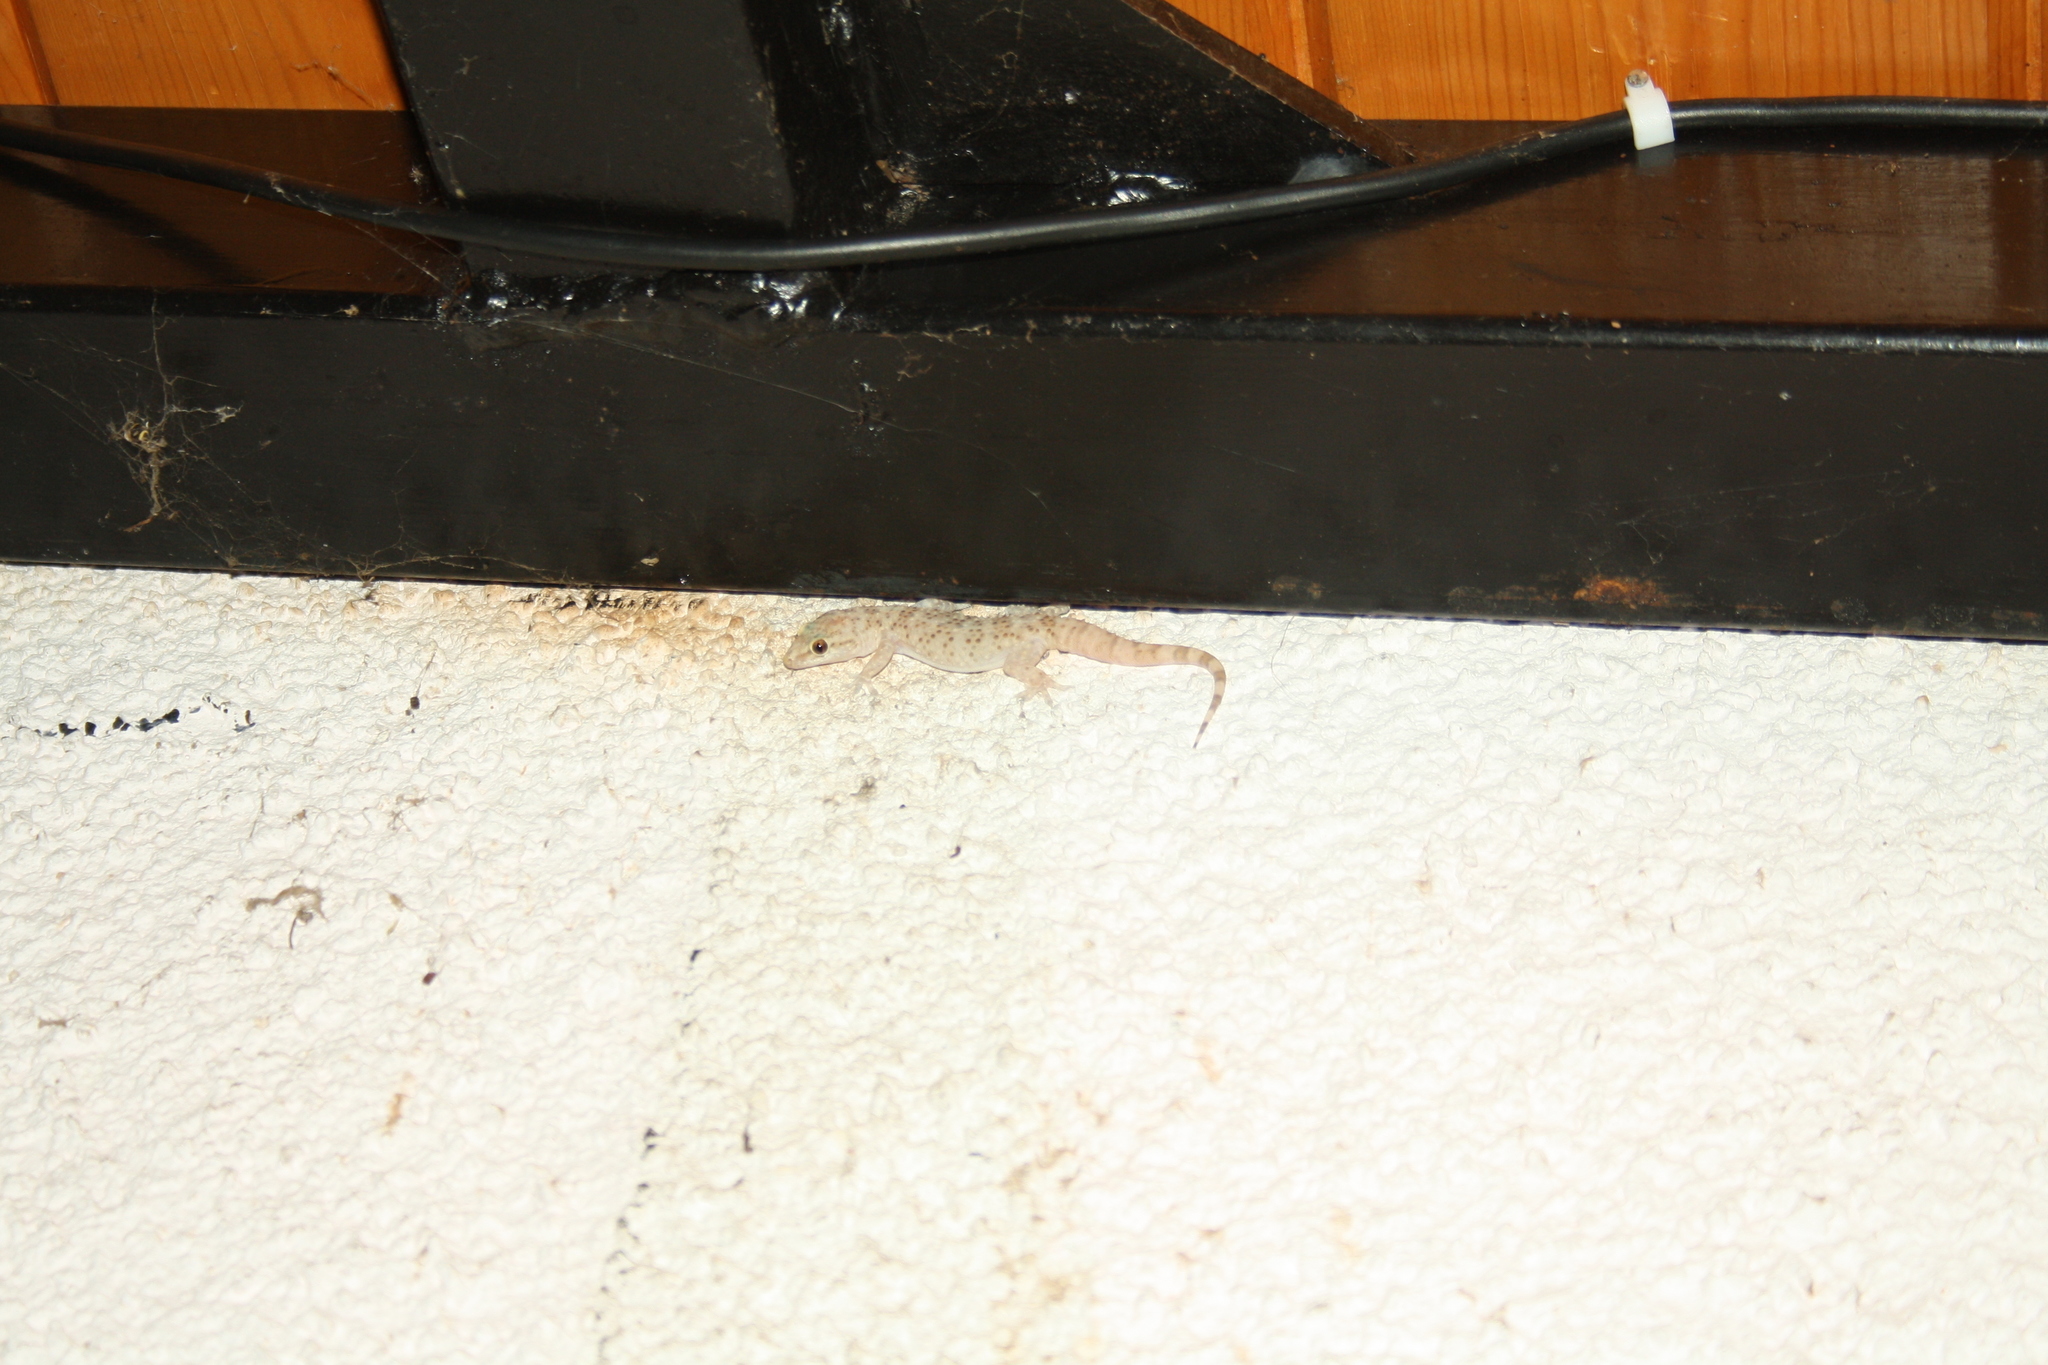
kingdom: Animalia
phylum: Chordata
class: Squamata
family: Gekkonidae
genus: Hemidactylus
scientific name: Hemidactylus turcicus
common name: Turkish gecko
